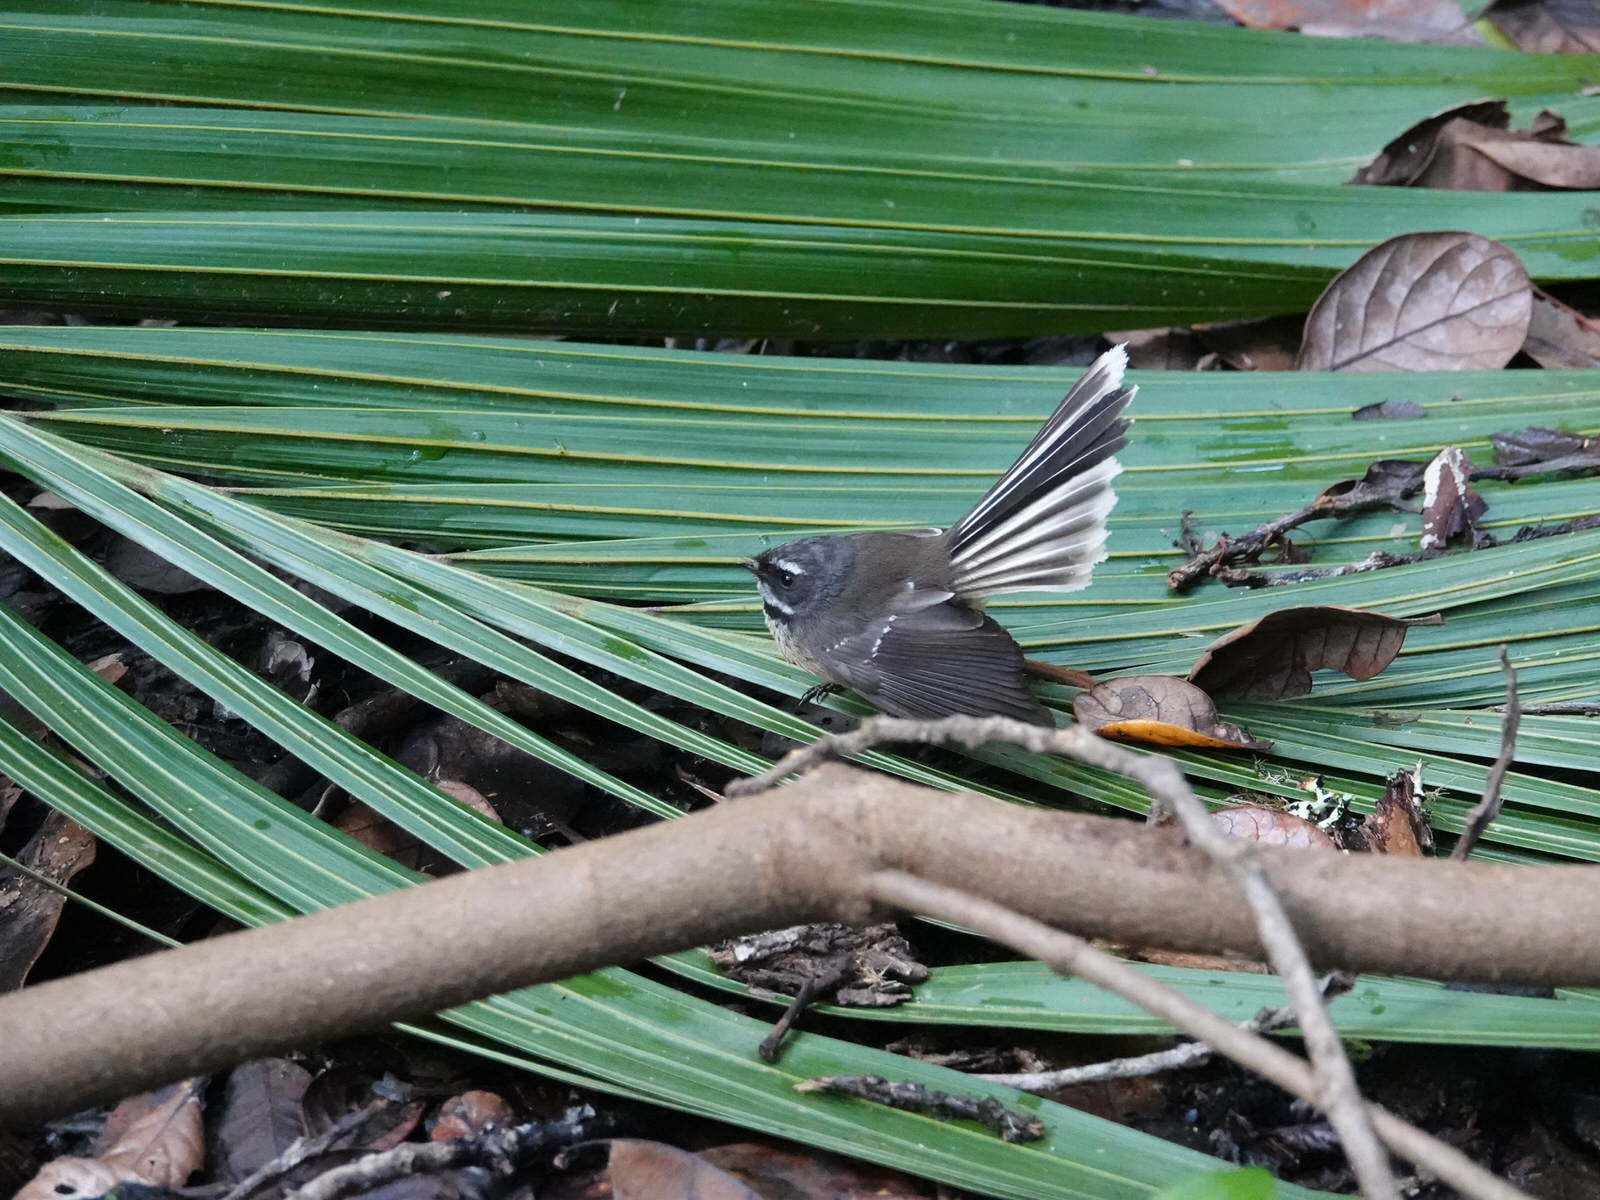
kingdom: Animalia
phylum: Chordata
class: Aves
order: Passeriformes
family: Rhipiduridae
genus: Rhipidura
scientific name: Rhipidura fuliginosa
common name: New zealand fantail
